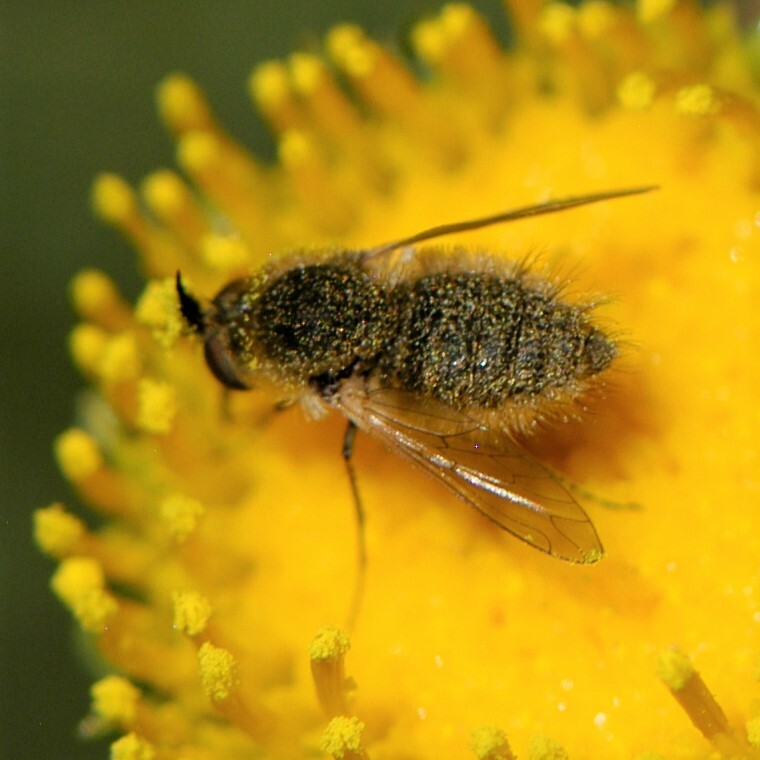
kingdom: Animalia
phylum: Arthropoda
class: Insecta
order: Diptera
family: Bombyliidae
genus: Sparnopolius
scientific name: Sparnopolius
